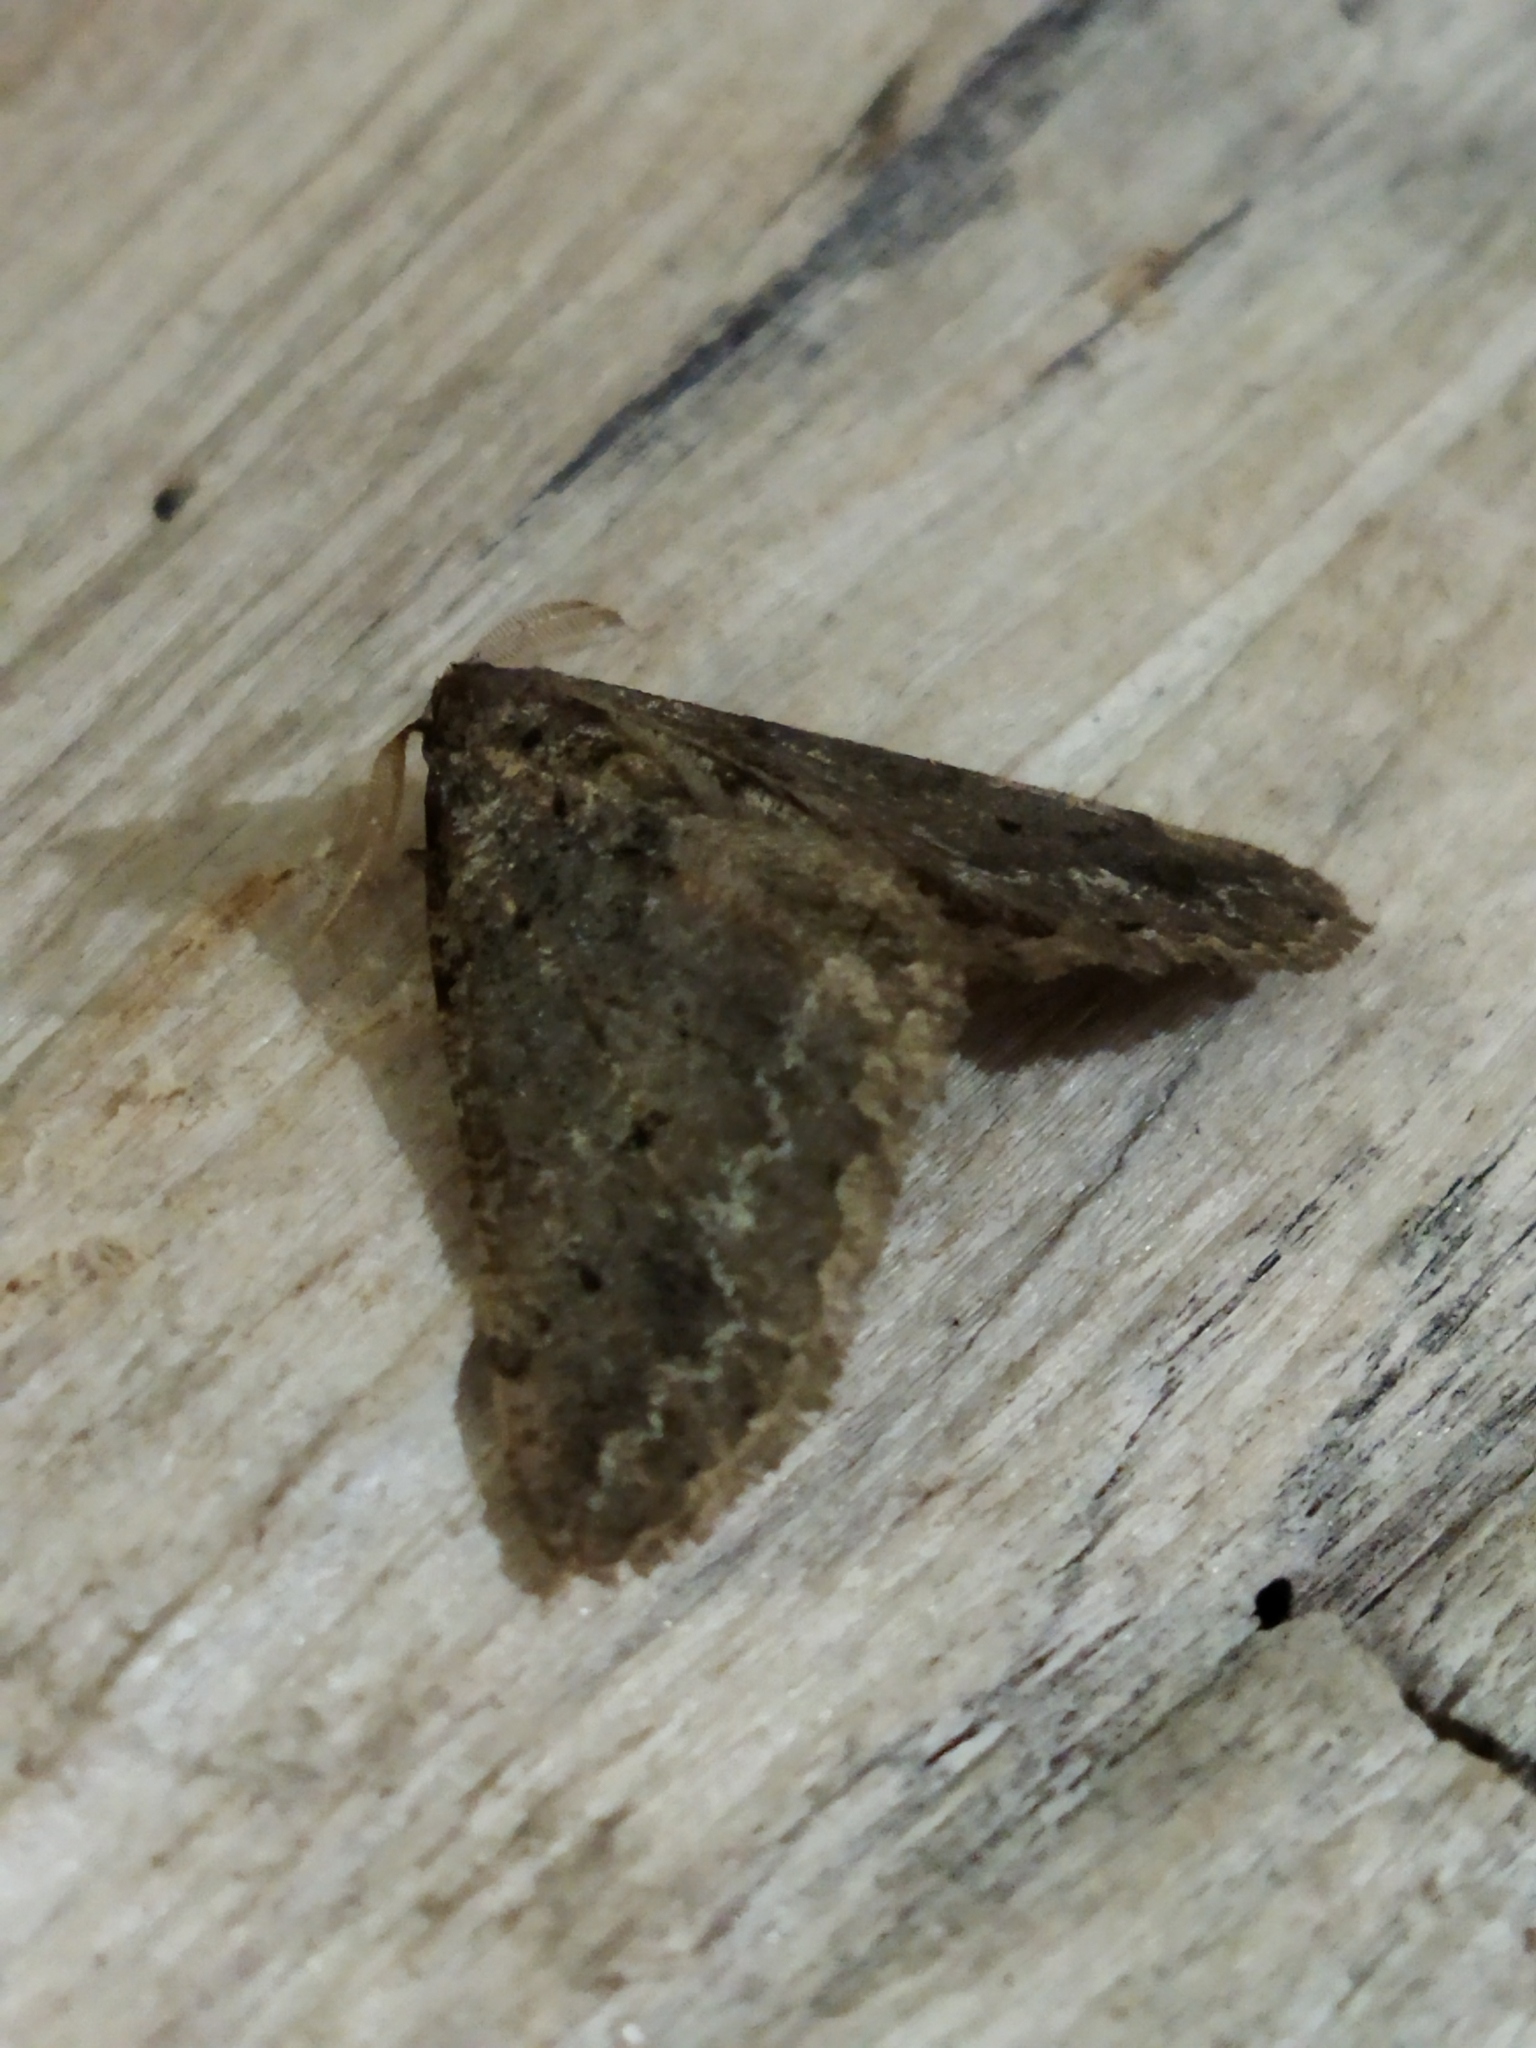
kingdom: Animalia
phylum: Arthropoda
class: Insecta
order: Lepidoptera
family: Geometridae
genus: Agriopis
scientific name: Agriopis bajaria
